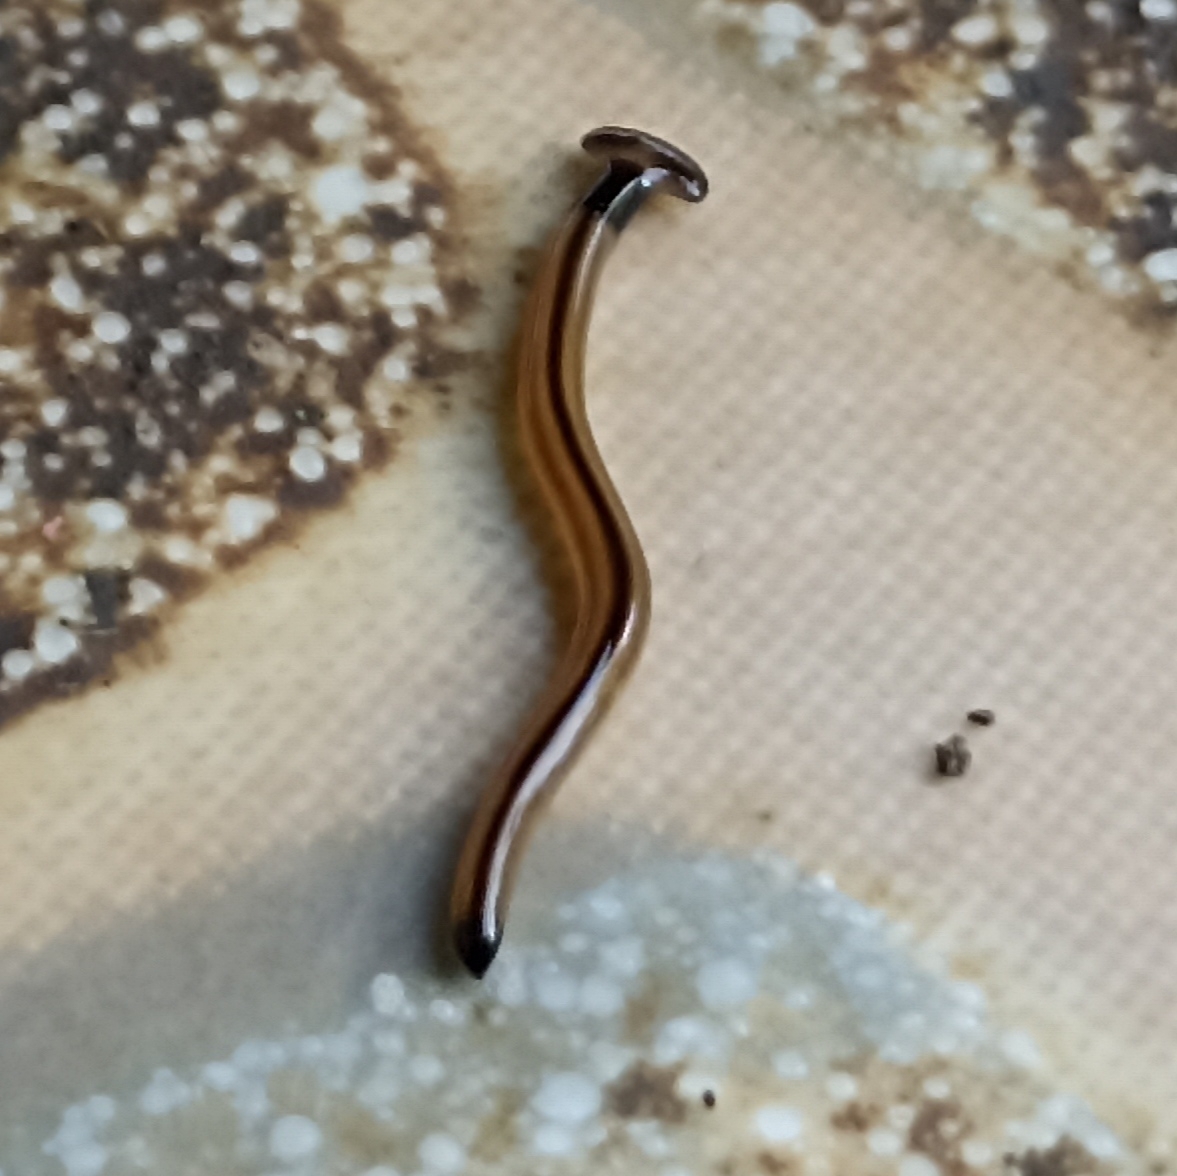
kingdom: Animalia
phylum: Platyhelminthes
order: Tricladida
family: Geoplanidae
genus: Bipalium
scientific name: Bipalium vagum
